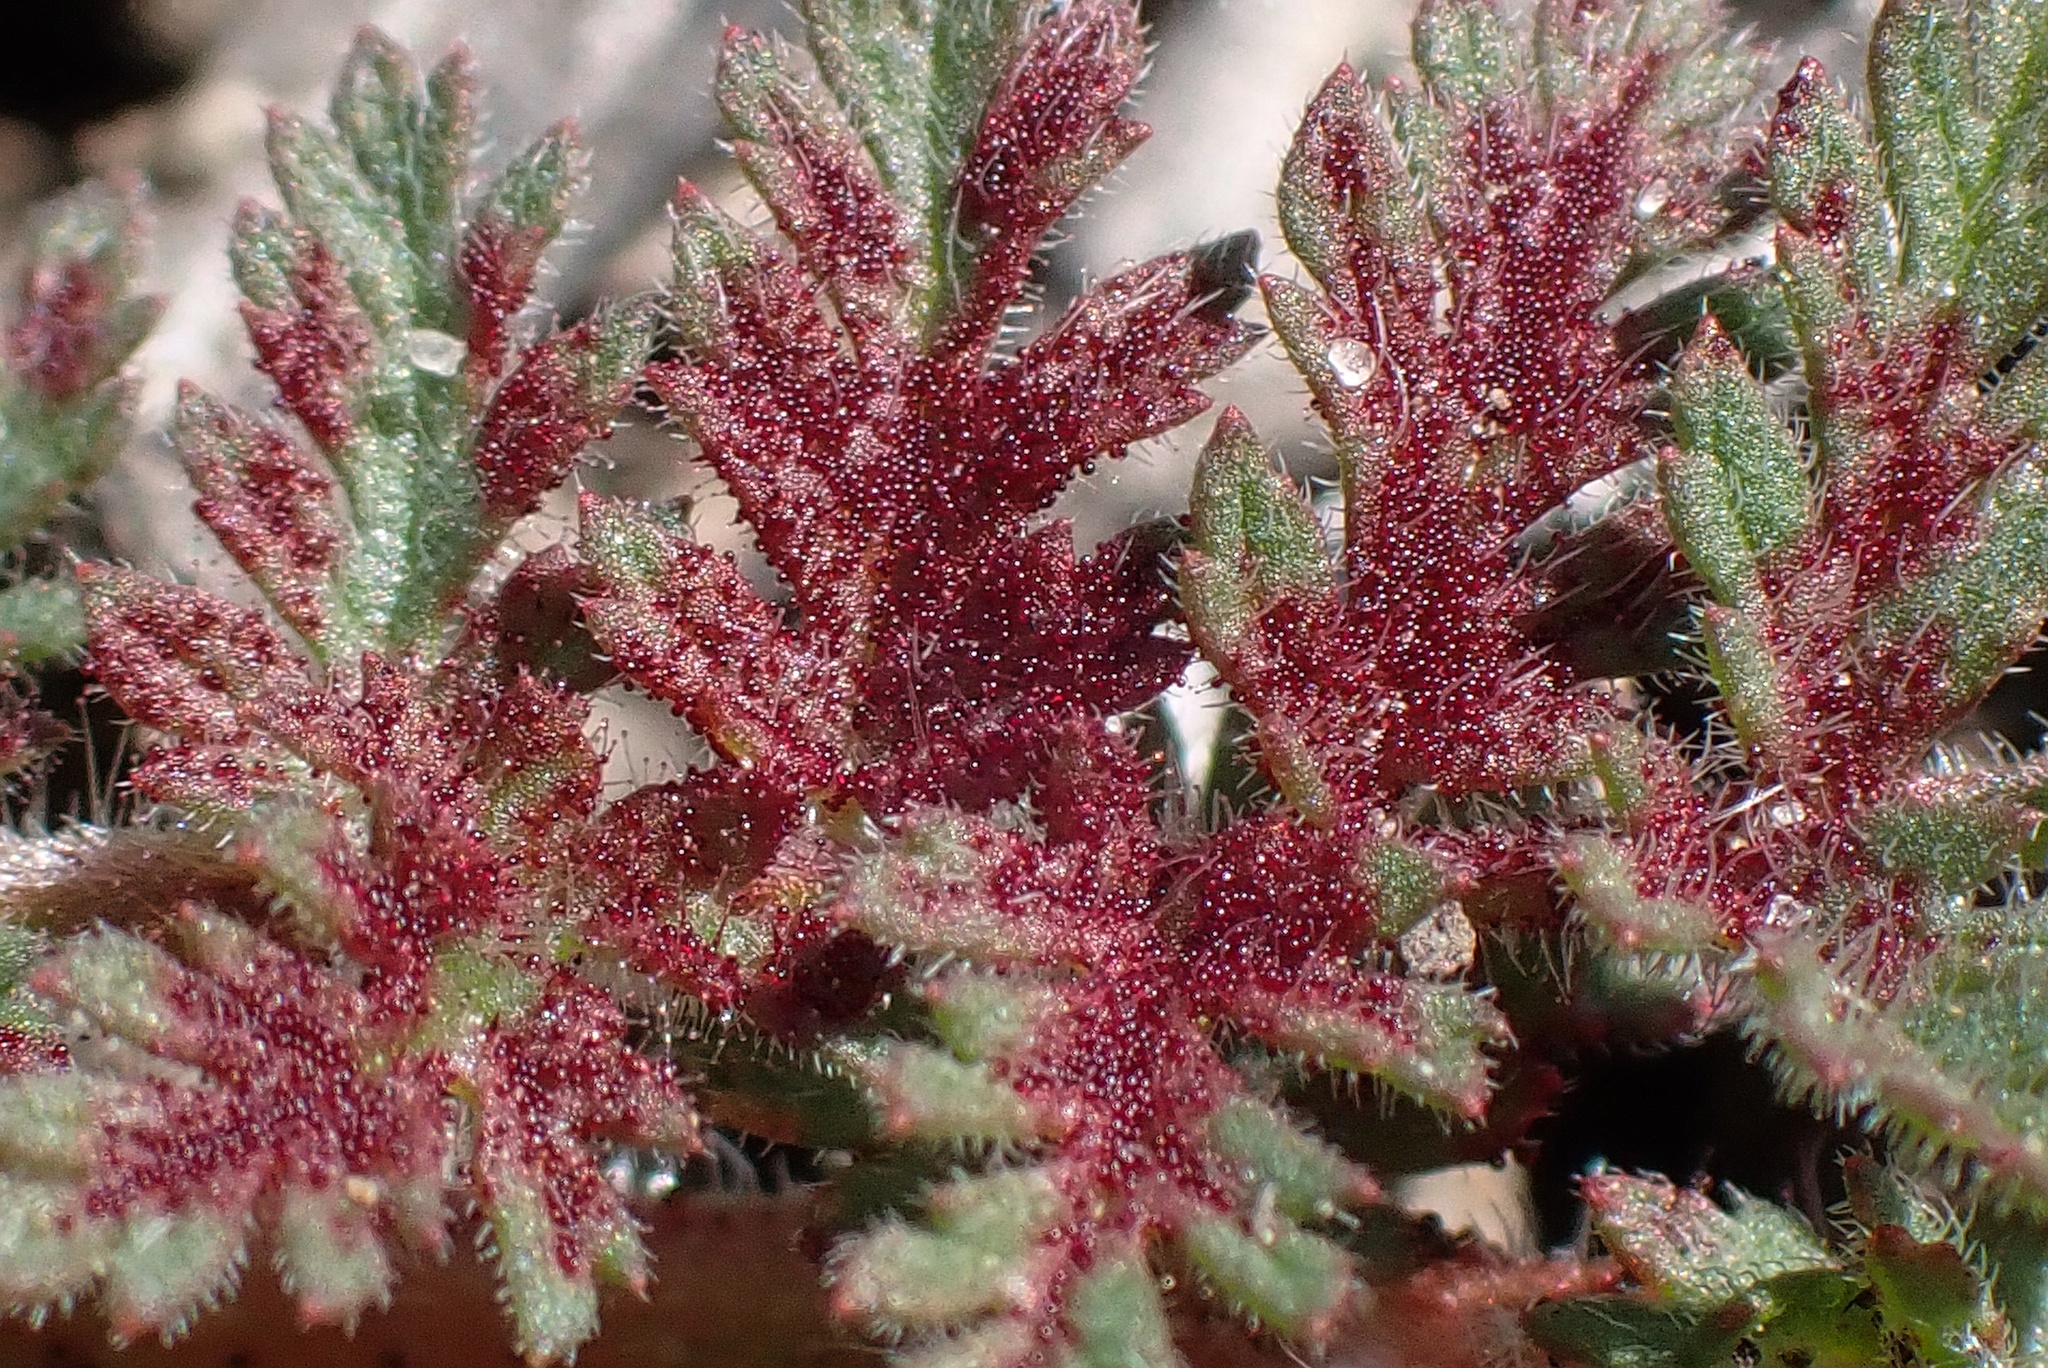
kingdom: Fungi
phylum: Chytridiomycota
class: Chytridiomycetes
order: Chytridiales
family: Synchytriaceae
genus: Synchytrium
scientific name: Synchytrium papillatum
